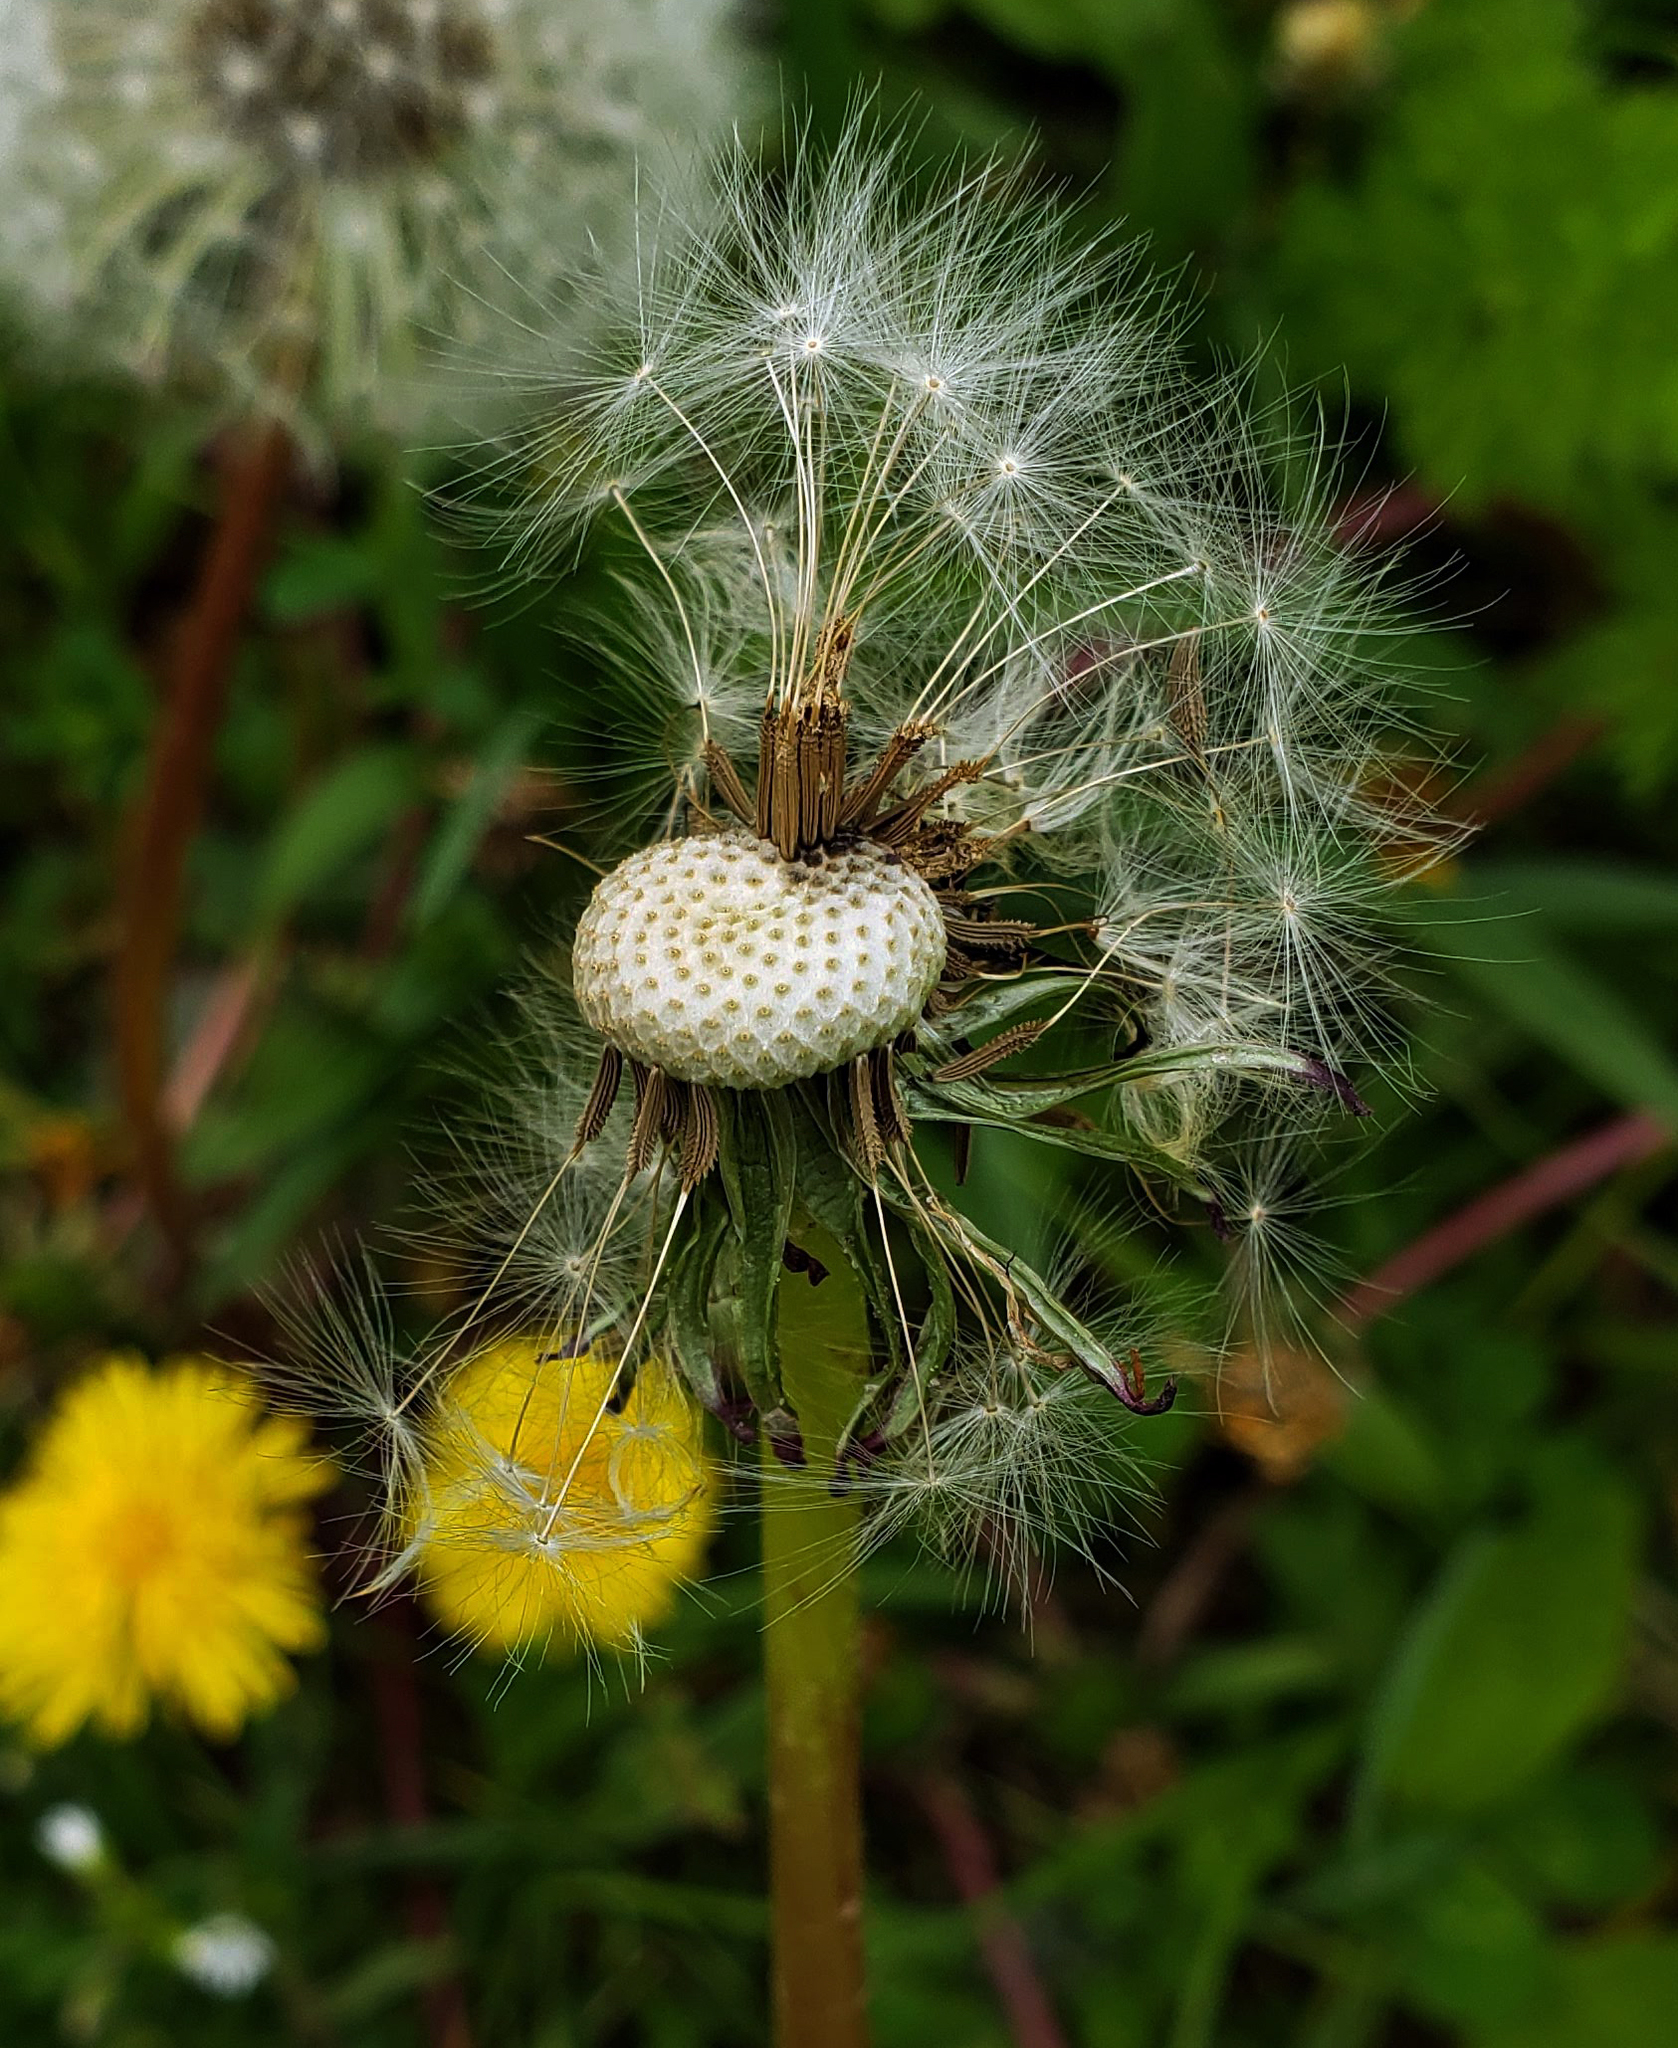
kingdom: Plantae
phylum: Tracheophyta
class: Magnoliopsida
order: Asterales
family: Asteraceae
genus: Taraxacum
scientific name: Taraxacum officinale
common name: Common dandelion
